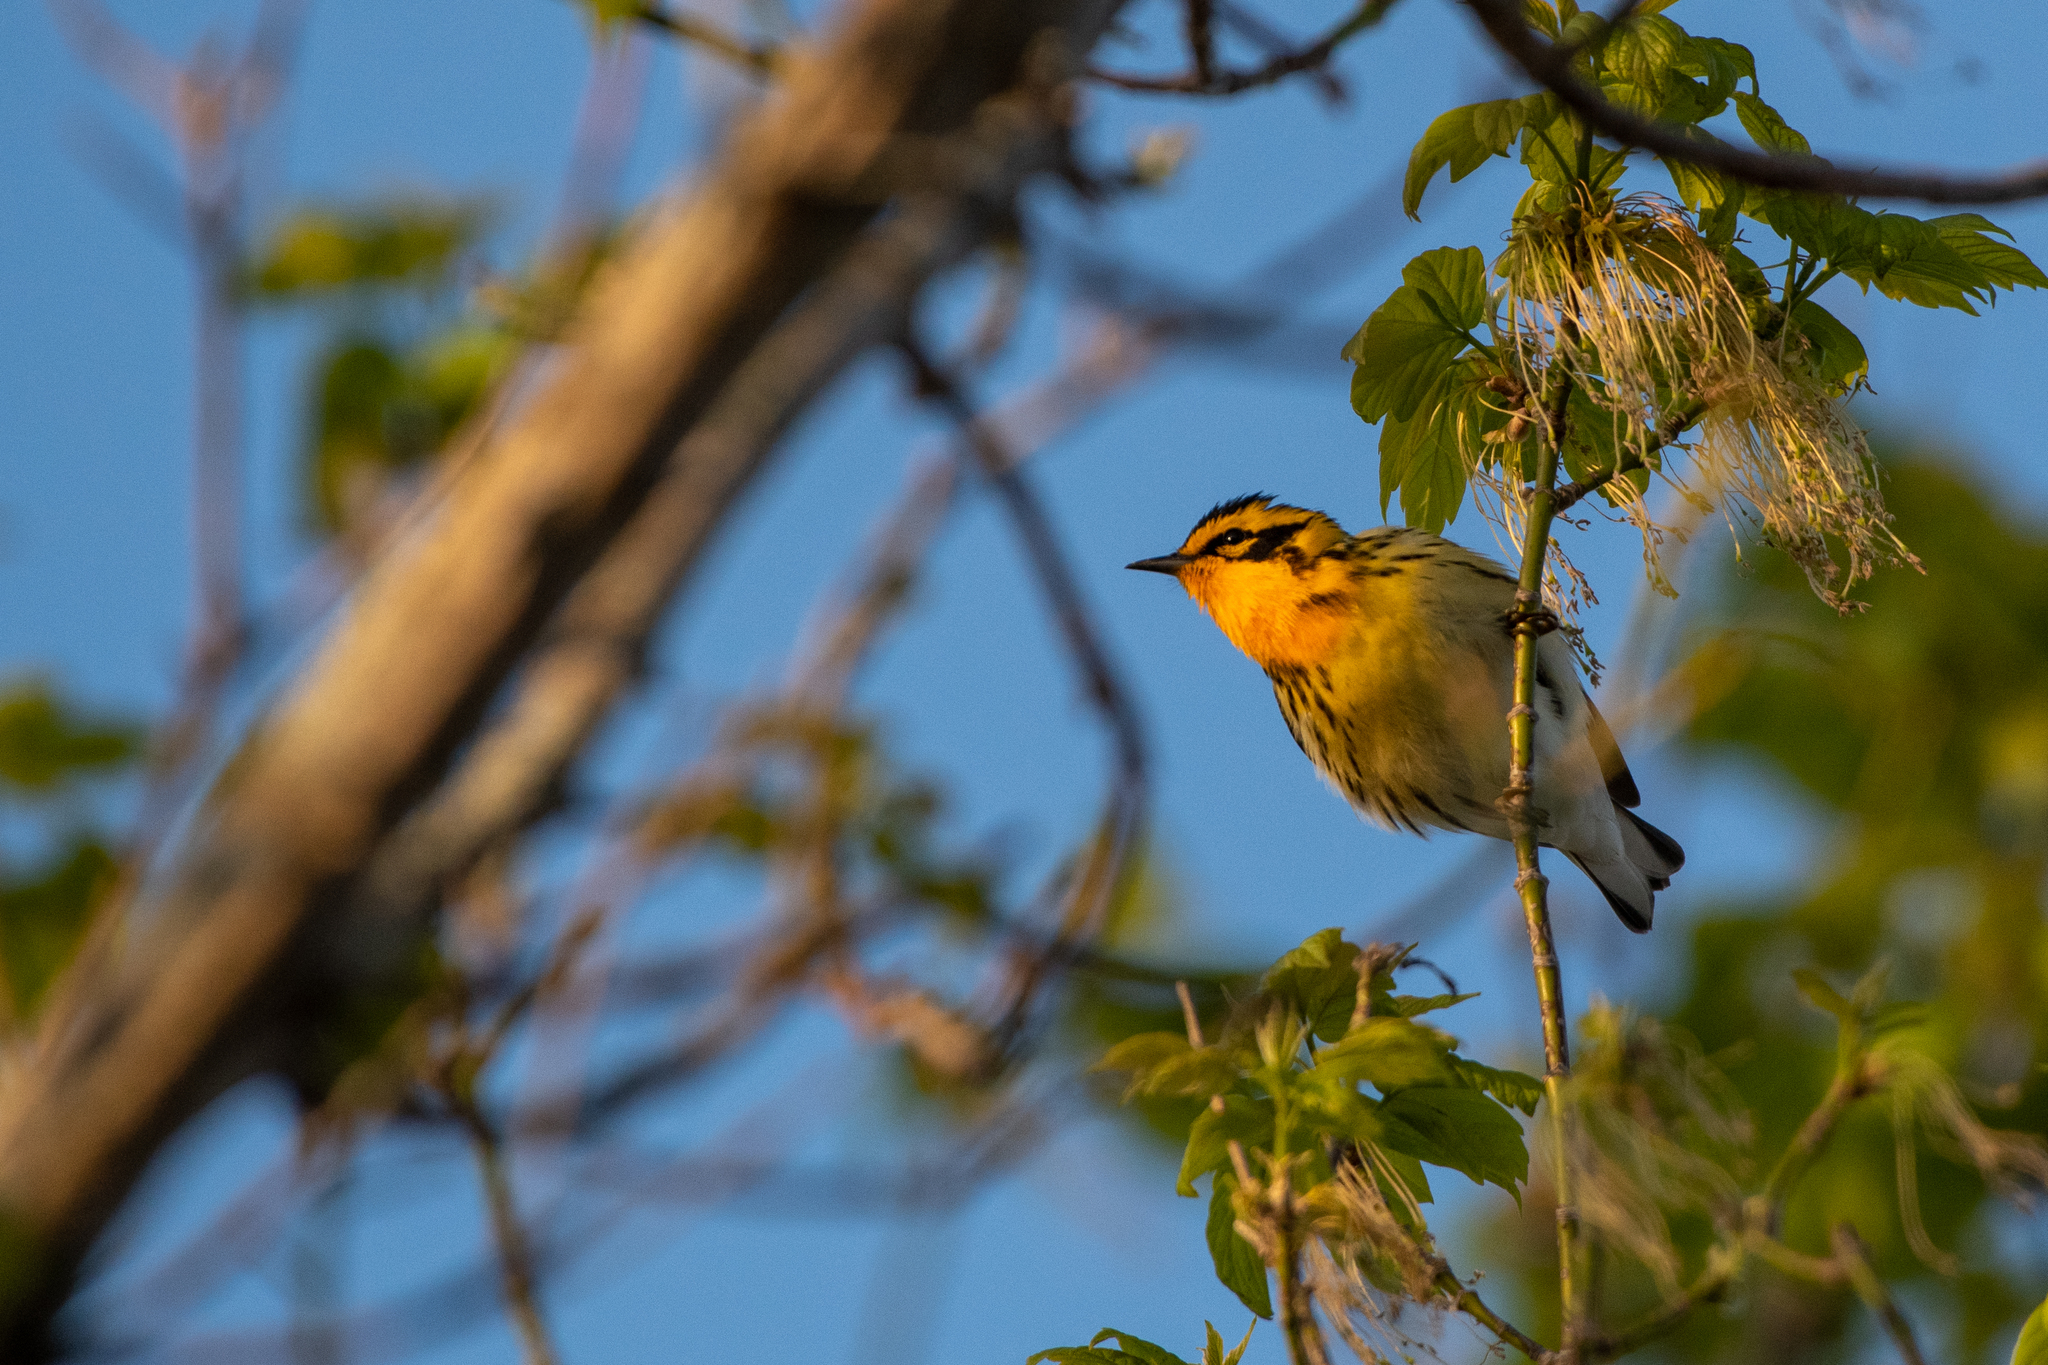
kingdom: Animalia
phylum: Chordata
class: Aves
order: Passeriformes
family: Parulidae
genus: Setophaga
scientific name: Setophaga fusca
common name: Blackburnian warbler
